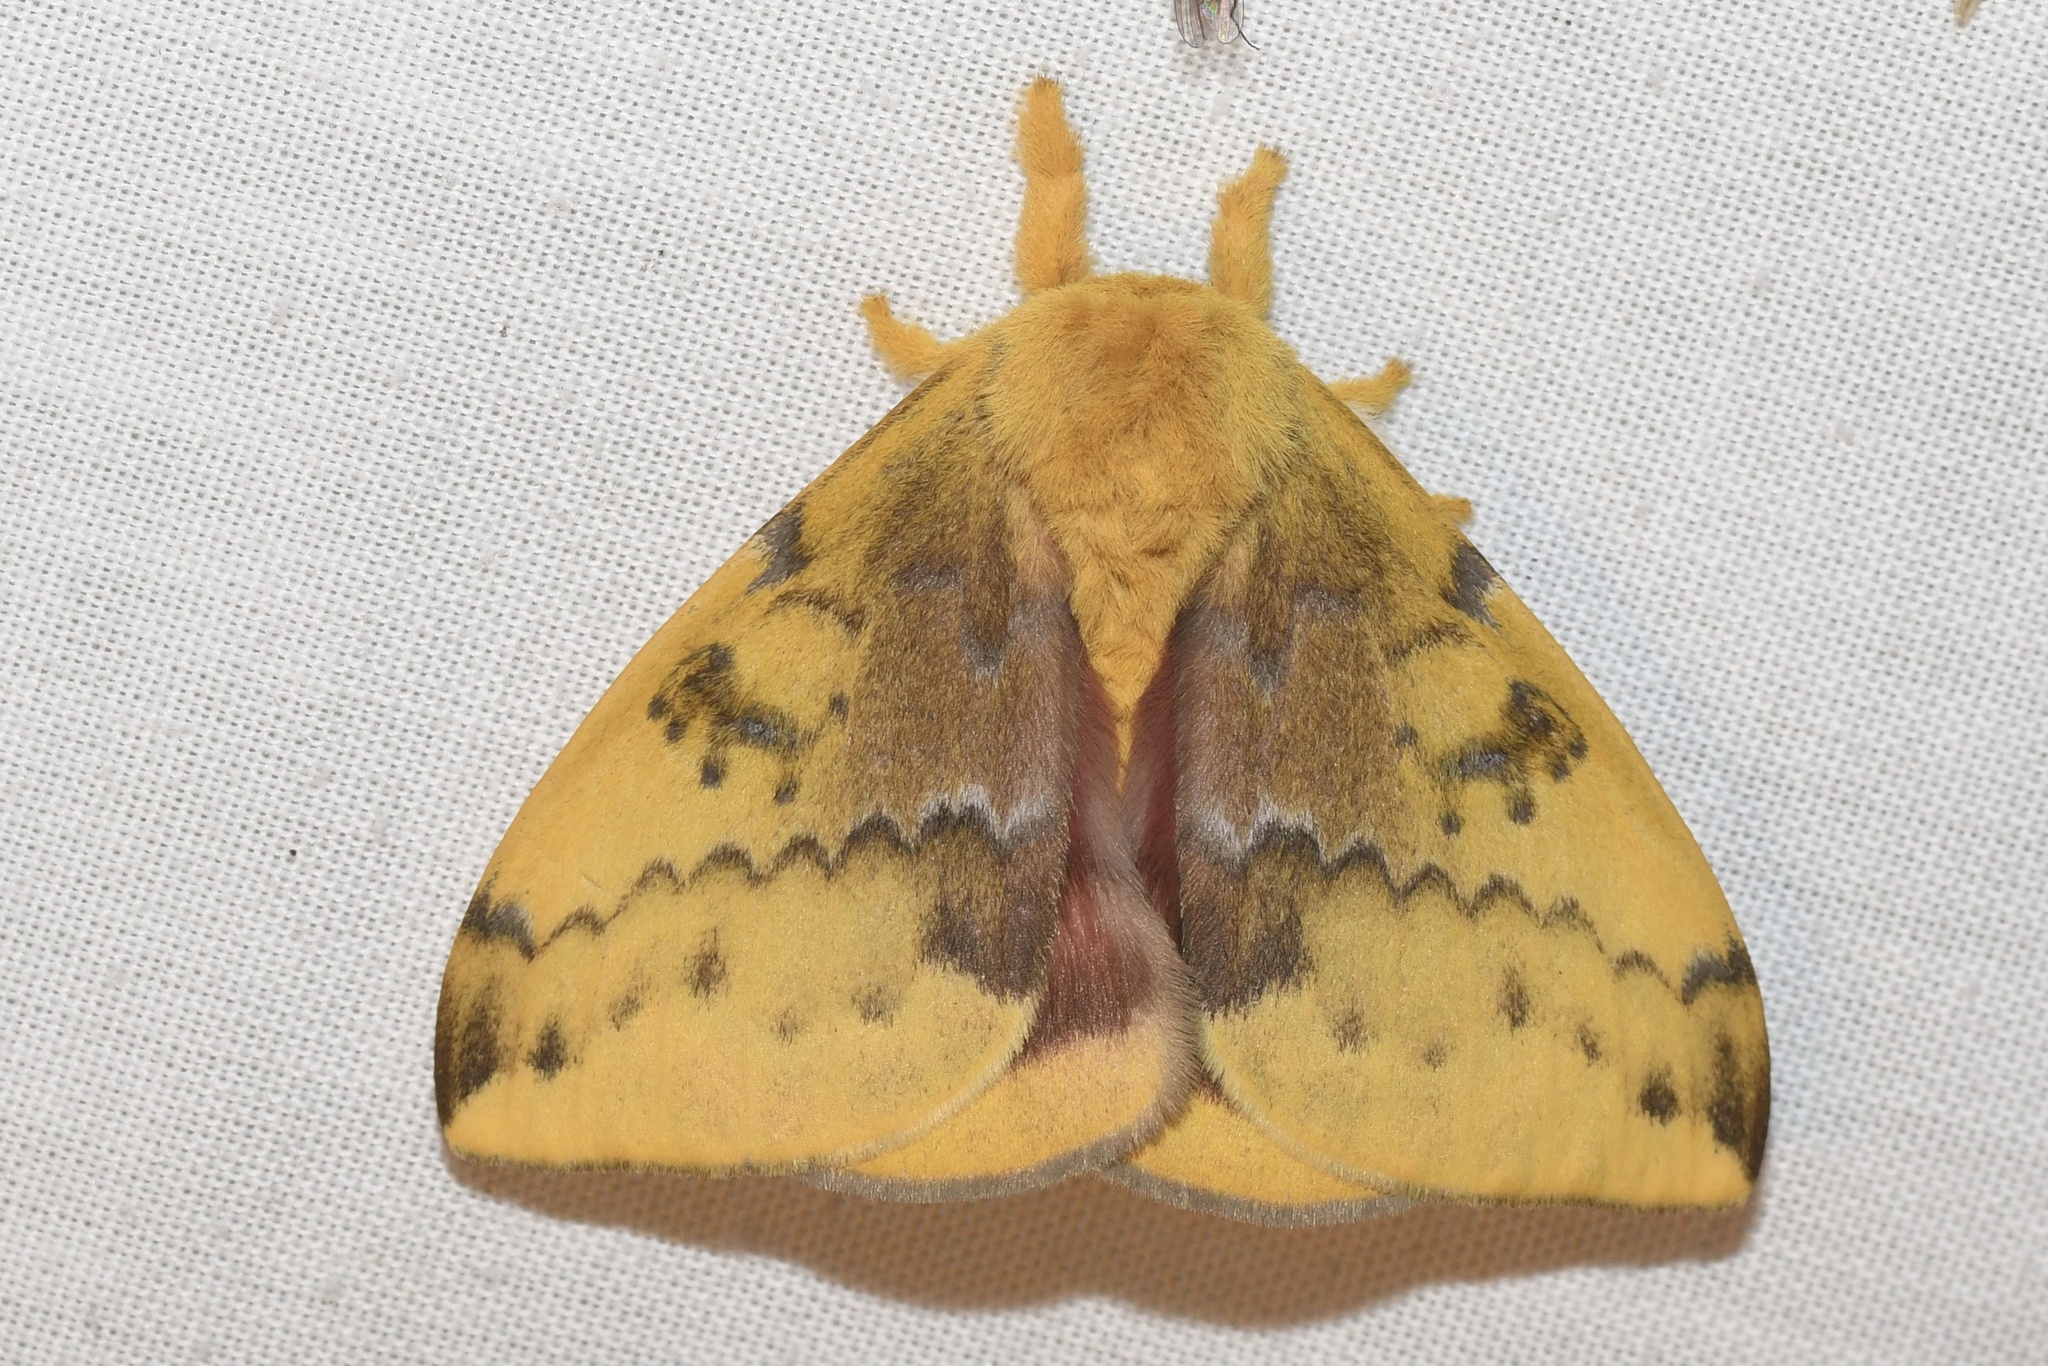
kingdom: Animalia
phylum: Arthropoda
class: Insecta
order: Lepidoptera
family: Saturniidae
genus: Automeris
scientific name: Automeris io
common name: Io moth
